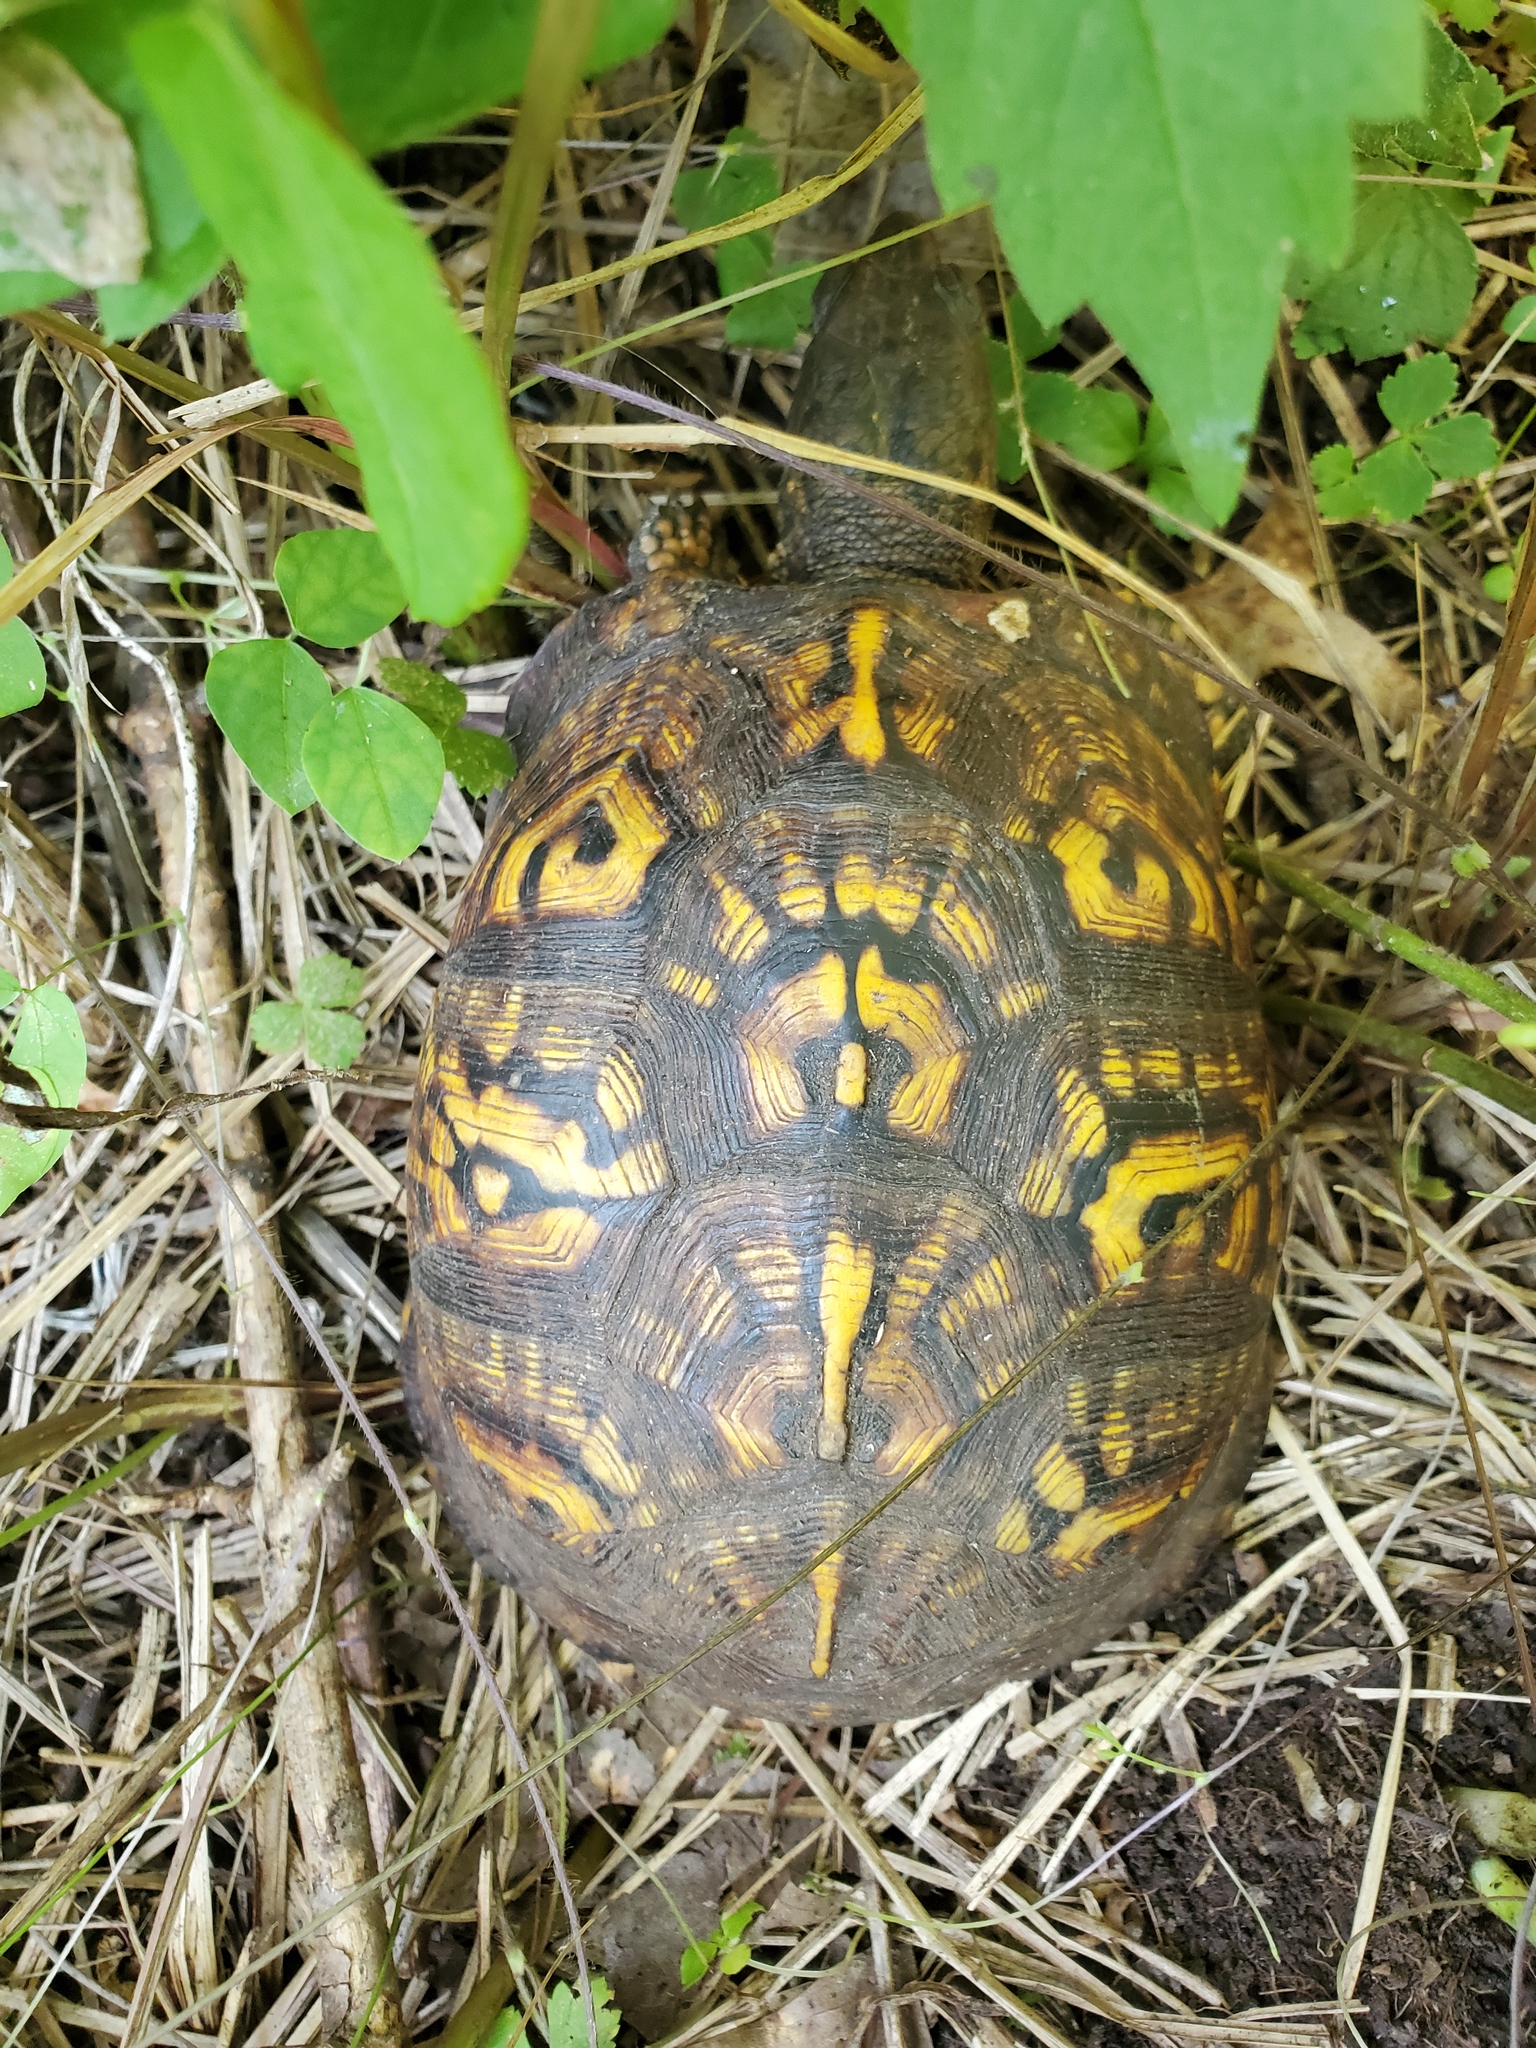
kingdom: Animalia
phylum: Chordata
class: Testudines
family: Emydidae
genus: Terrapene
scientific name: Terrapene carolina
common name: Common box turtle
